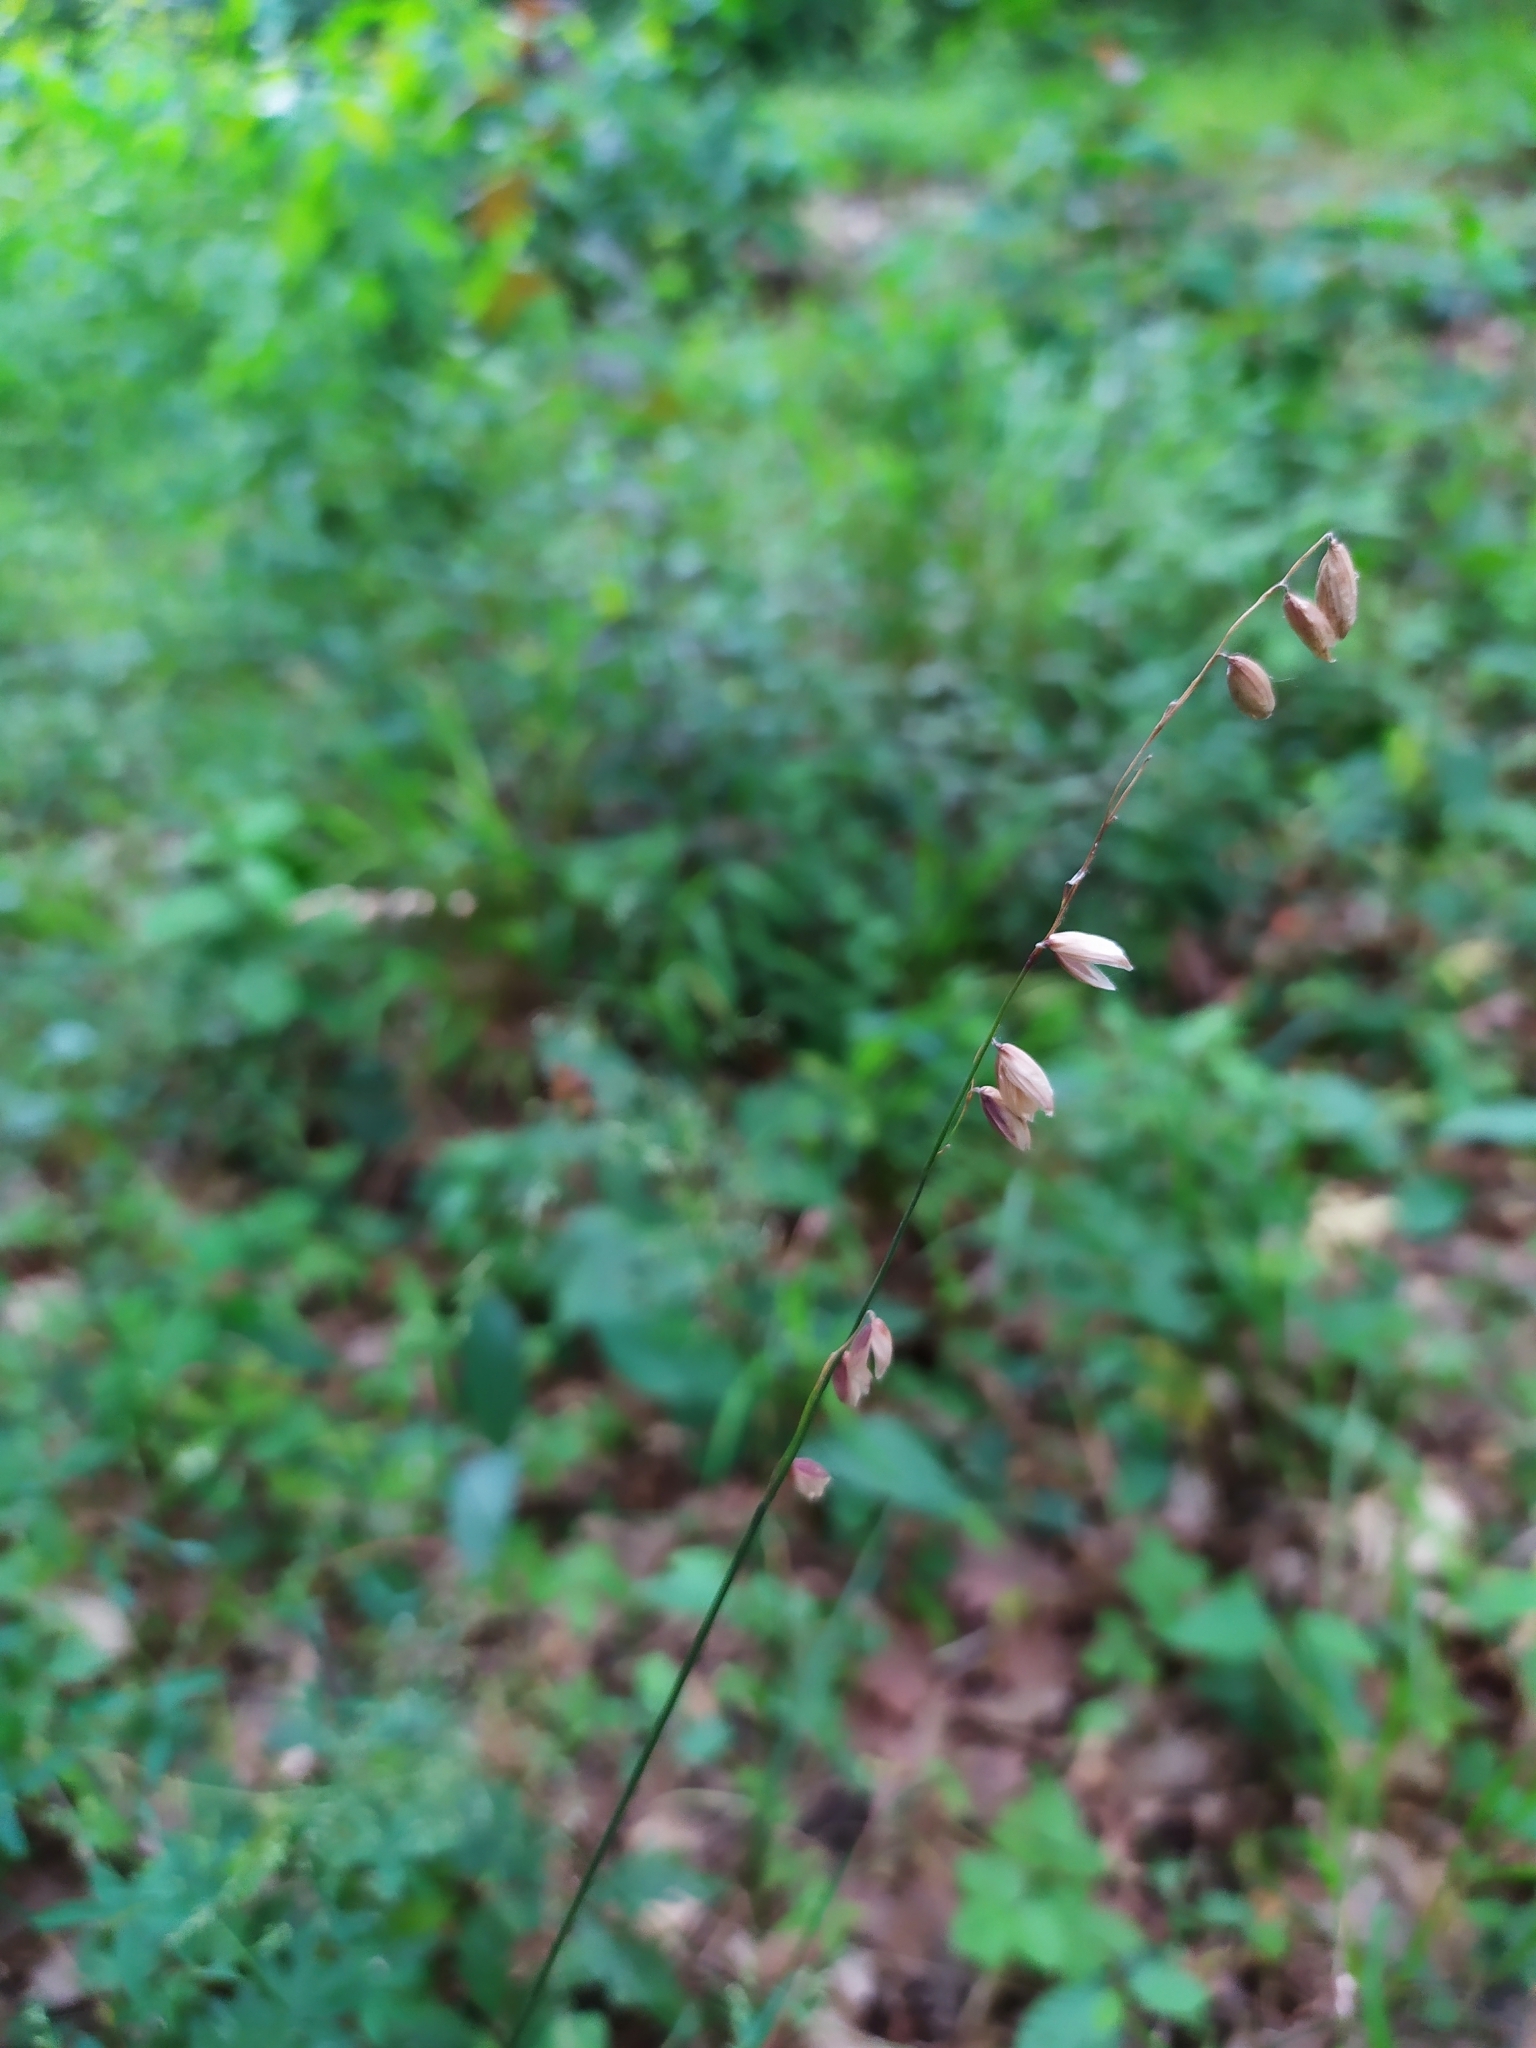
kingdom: Plantae
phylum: Tracheophyta
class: Liliopsida
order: Poales
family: Poaceae
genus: Melica
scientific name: Melica nutans
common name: Mountain melick
